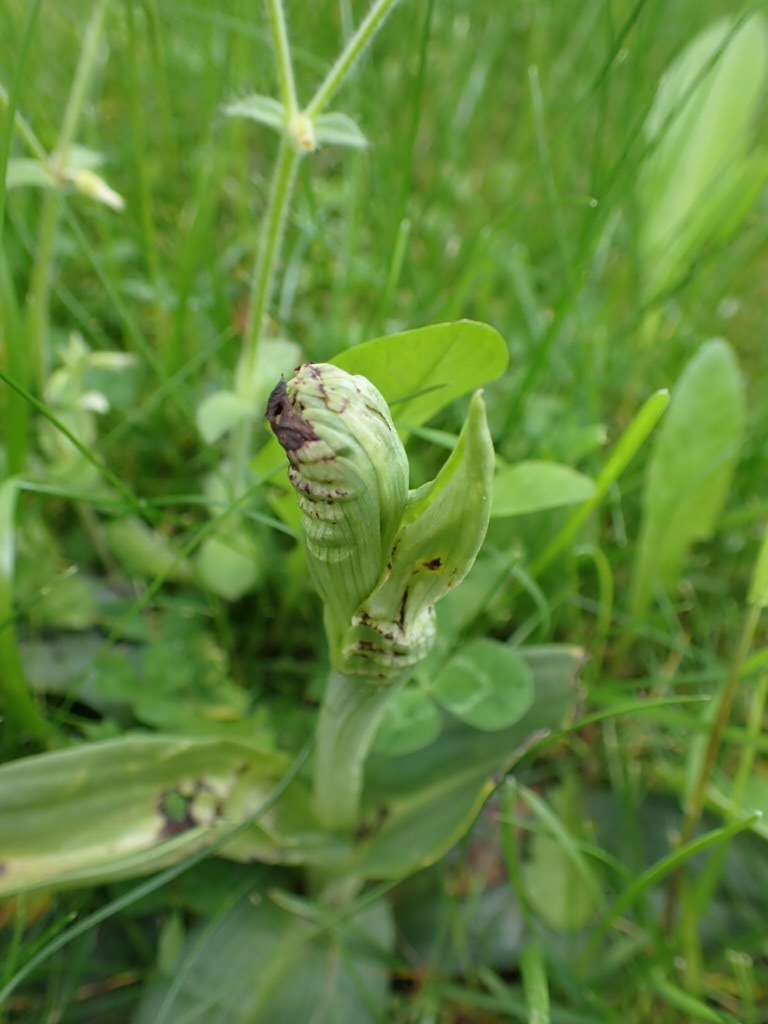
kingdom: Plantae
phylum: Tracheophyta
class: Liliopsida
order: Asparagales
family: Orchidaceae
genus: Ophrys
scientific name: Ophrys apifera
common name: Bee orchid
